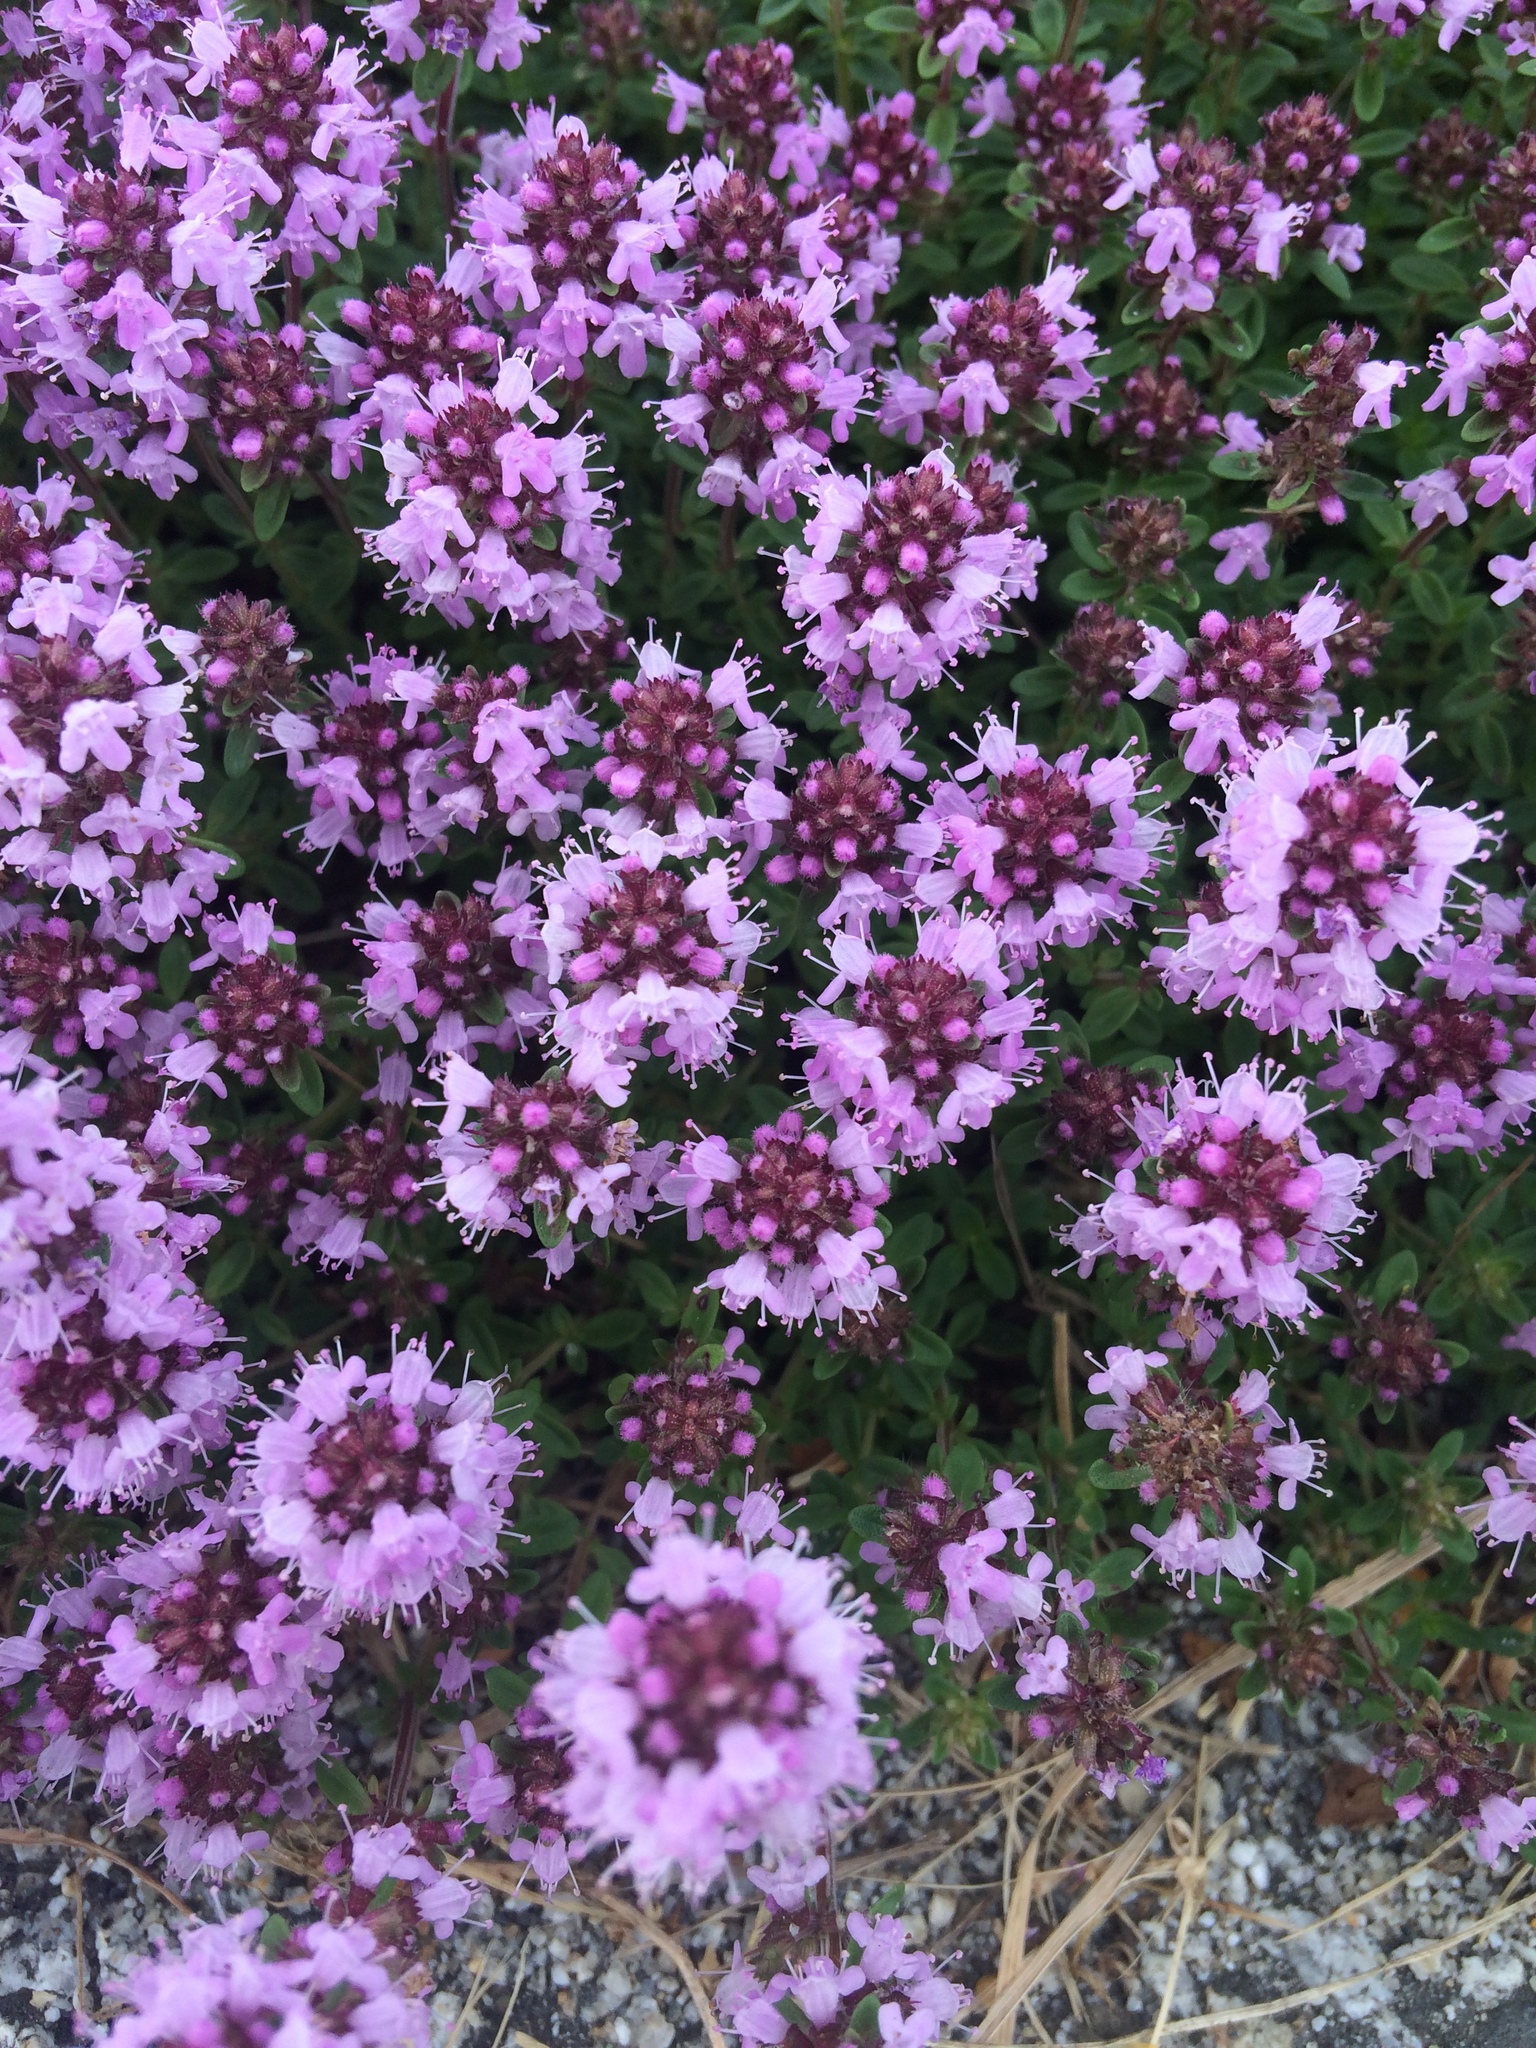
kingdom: Plantae
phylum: Tracheophyta
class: Magnoliopsida
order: Lamiales
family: Lamiaceae
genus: Thymus
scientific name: Thymus pulegioides
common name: Large thyme
